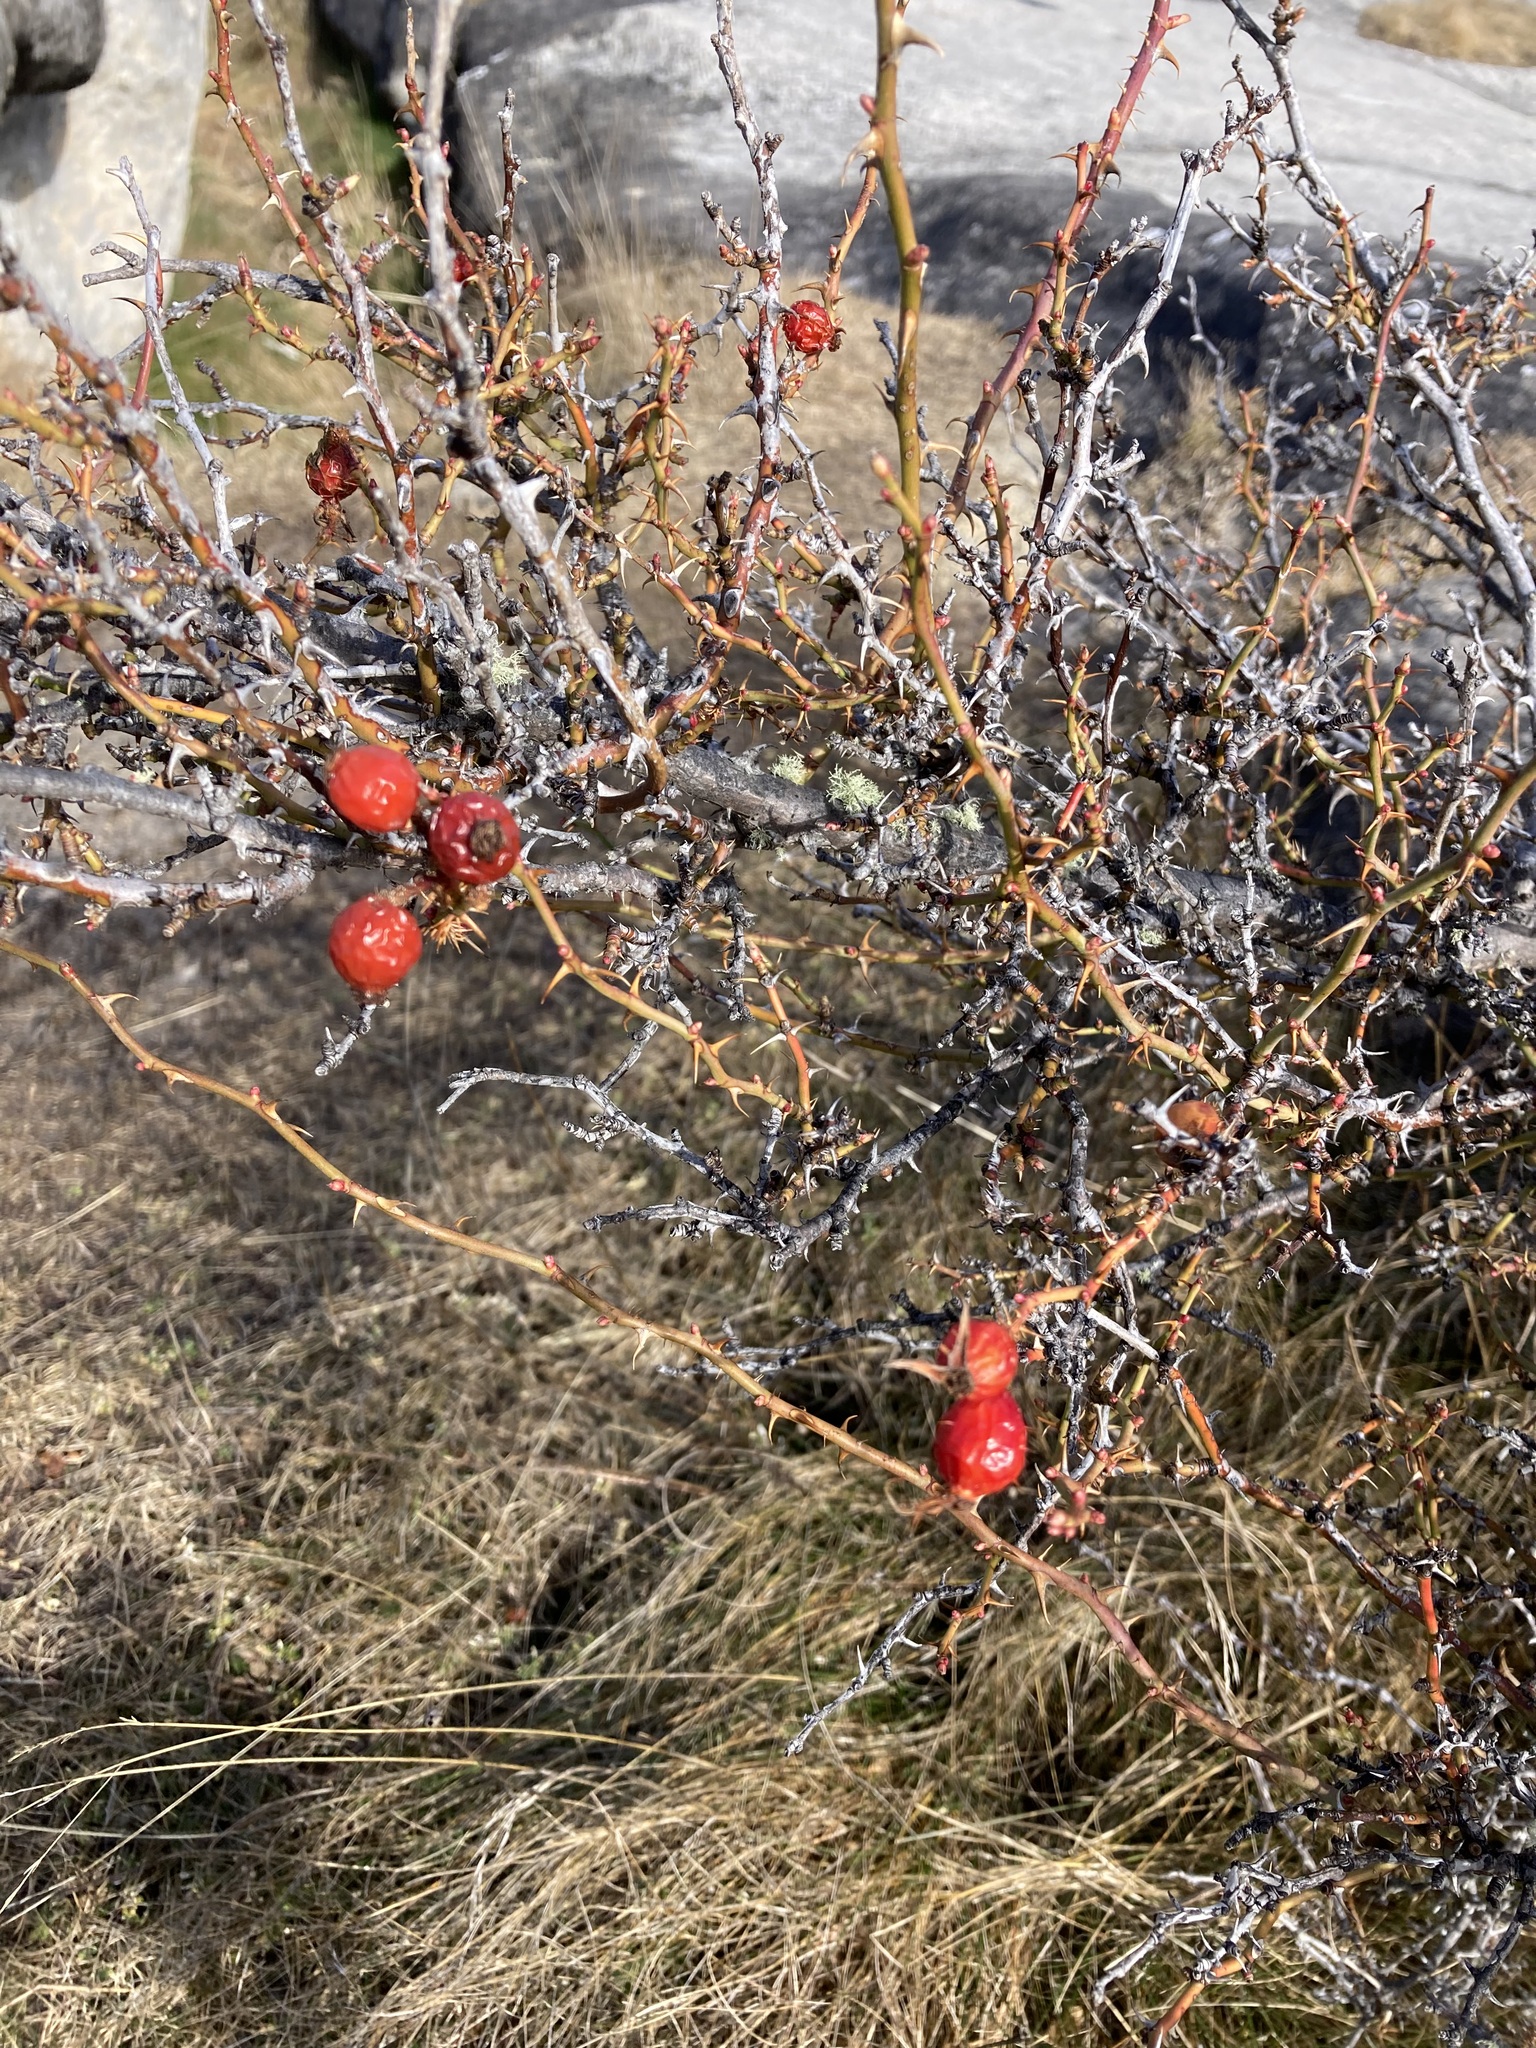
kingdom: Plantae
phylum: Tracheophyta
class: Magnoliopsida
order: Rosales
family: Rosaceae
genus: Rosa
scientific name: Rosa rubiginosa
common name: Sweet-briar
